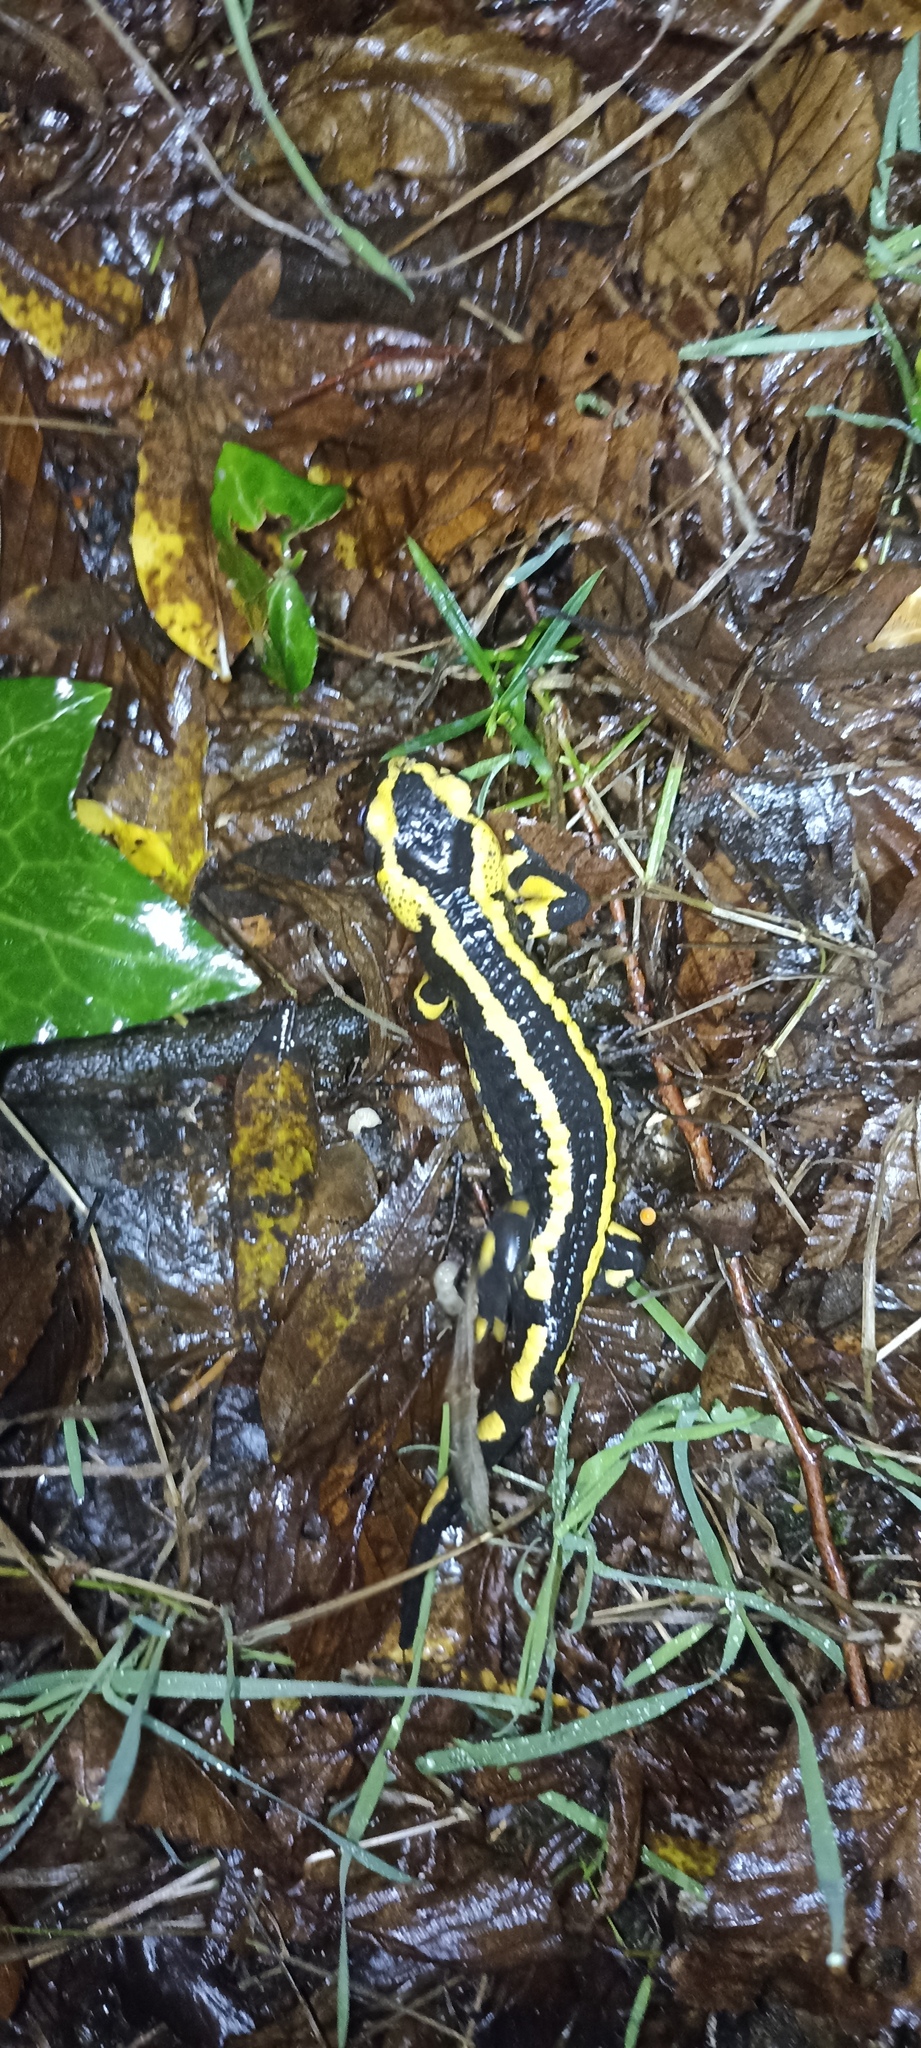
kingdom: Animalia
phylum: Chordata
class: Amphibia
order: Caudata
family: Salamandridae
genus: Salamandra
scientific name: Salamandra salamandra
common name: Fire salamander
